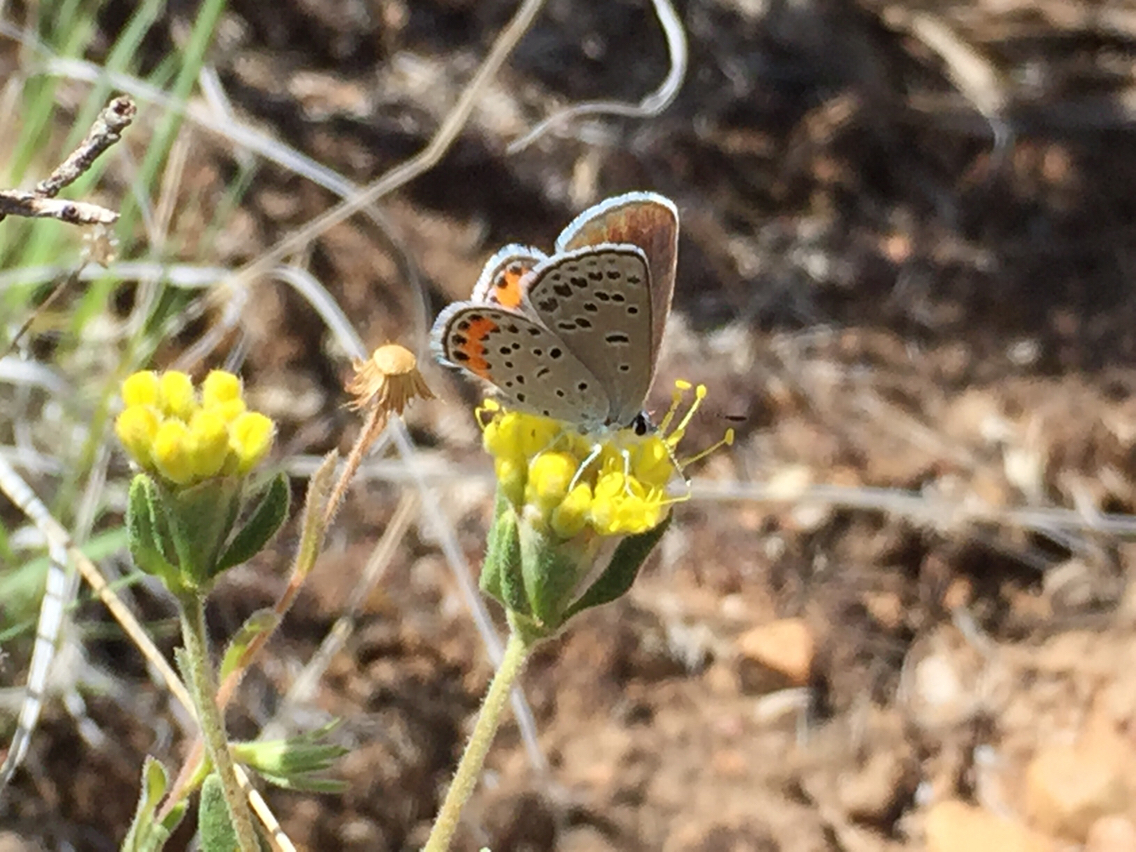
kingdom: Animalia
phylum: Arthropoda
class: Insecta
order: Lepidoptera
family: Lycaenidae
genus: Icaricia
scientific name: Icaricia lupini
